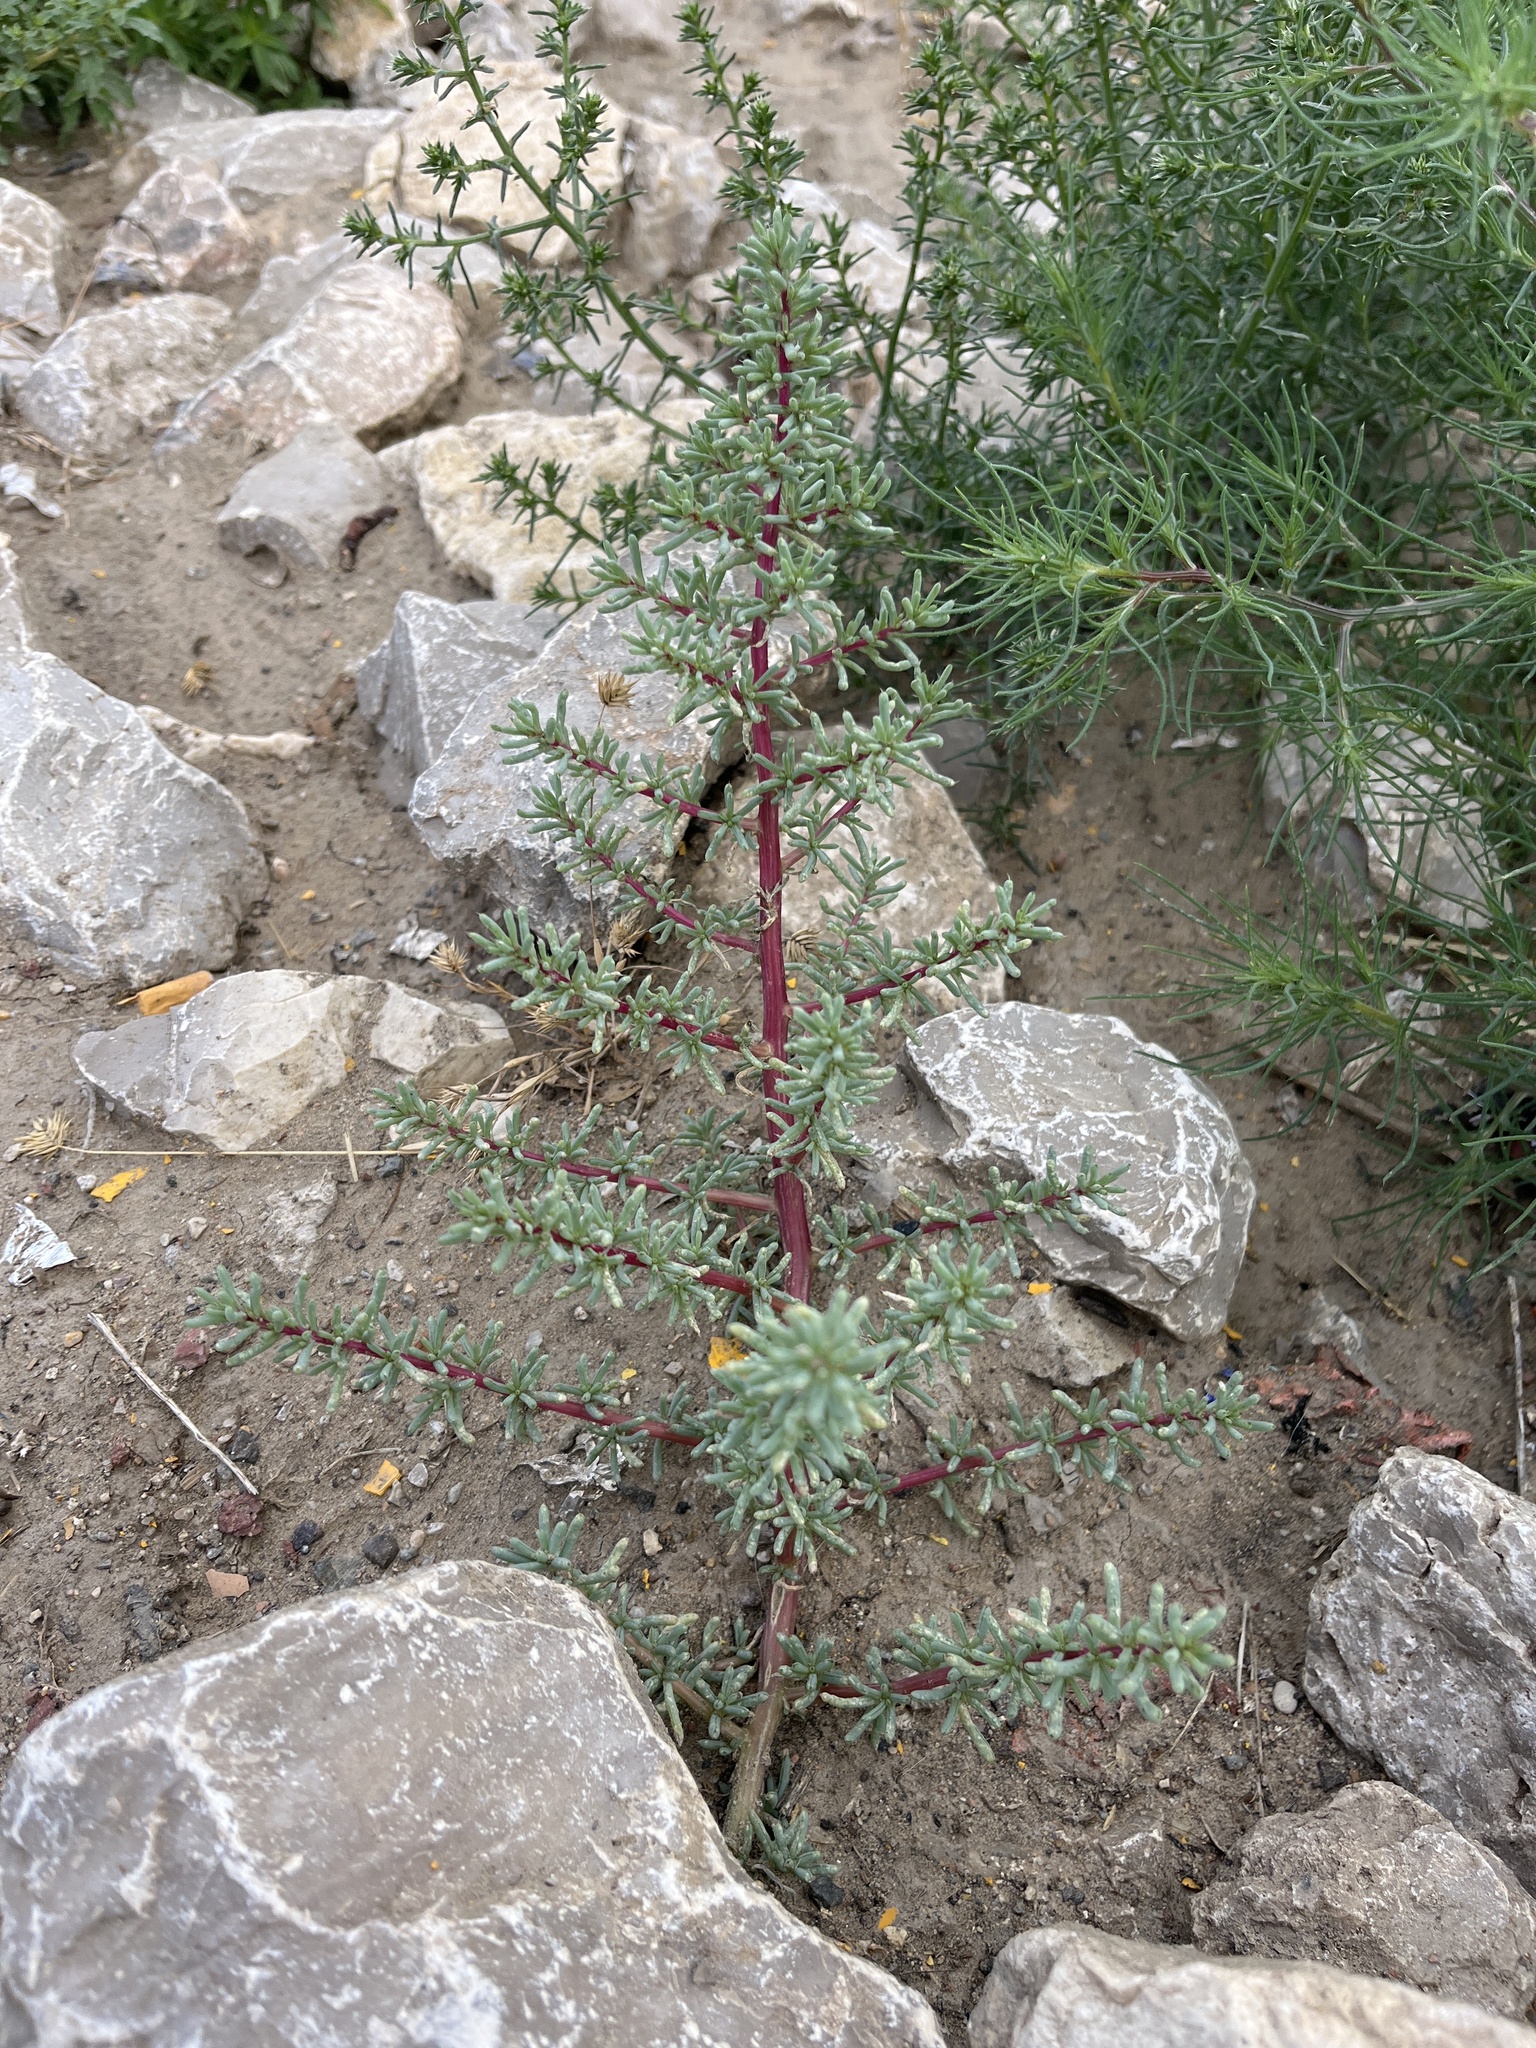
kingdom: Plantae
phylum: Tracheophyta
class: Magnoliopsida
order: Caryophyllales
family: Amaranthaceae
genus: Halogeton
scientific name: Halogeton glomeratus
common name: Saltlover
